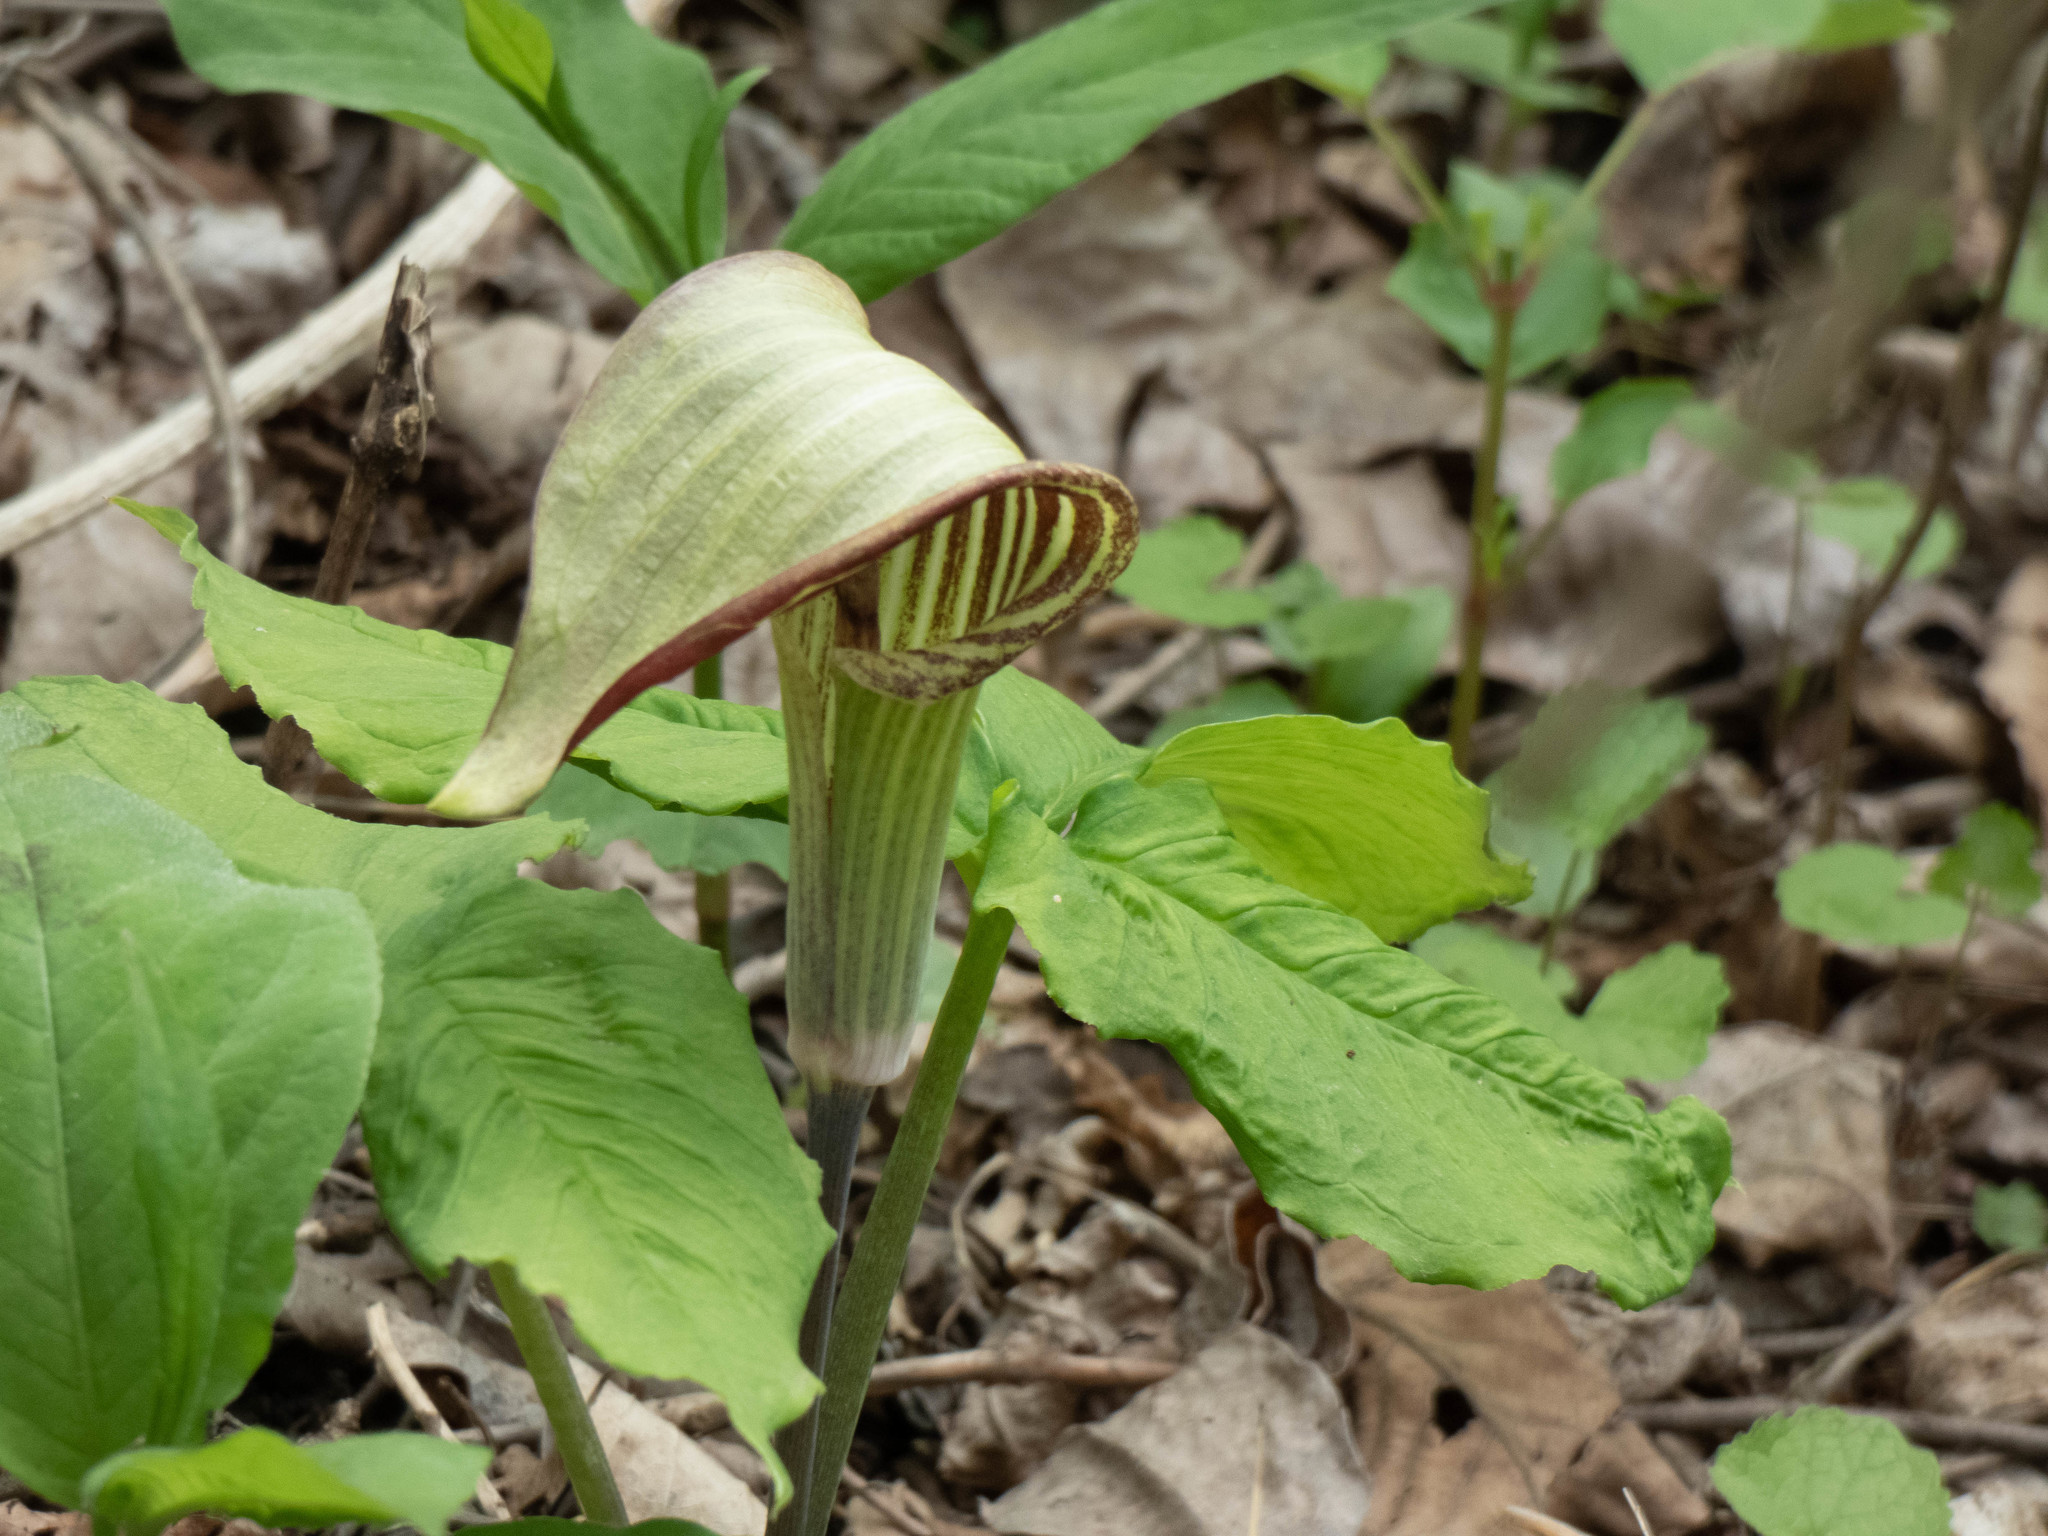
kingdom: Plantae
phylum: Tracheophyta
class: Liliopsida
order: Alismatales
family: Araceae
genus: Arisaema
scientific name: Arisaema triphyllum
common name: Jack-in-the-pulpit
